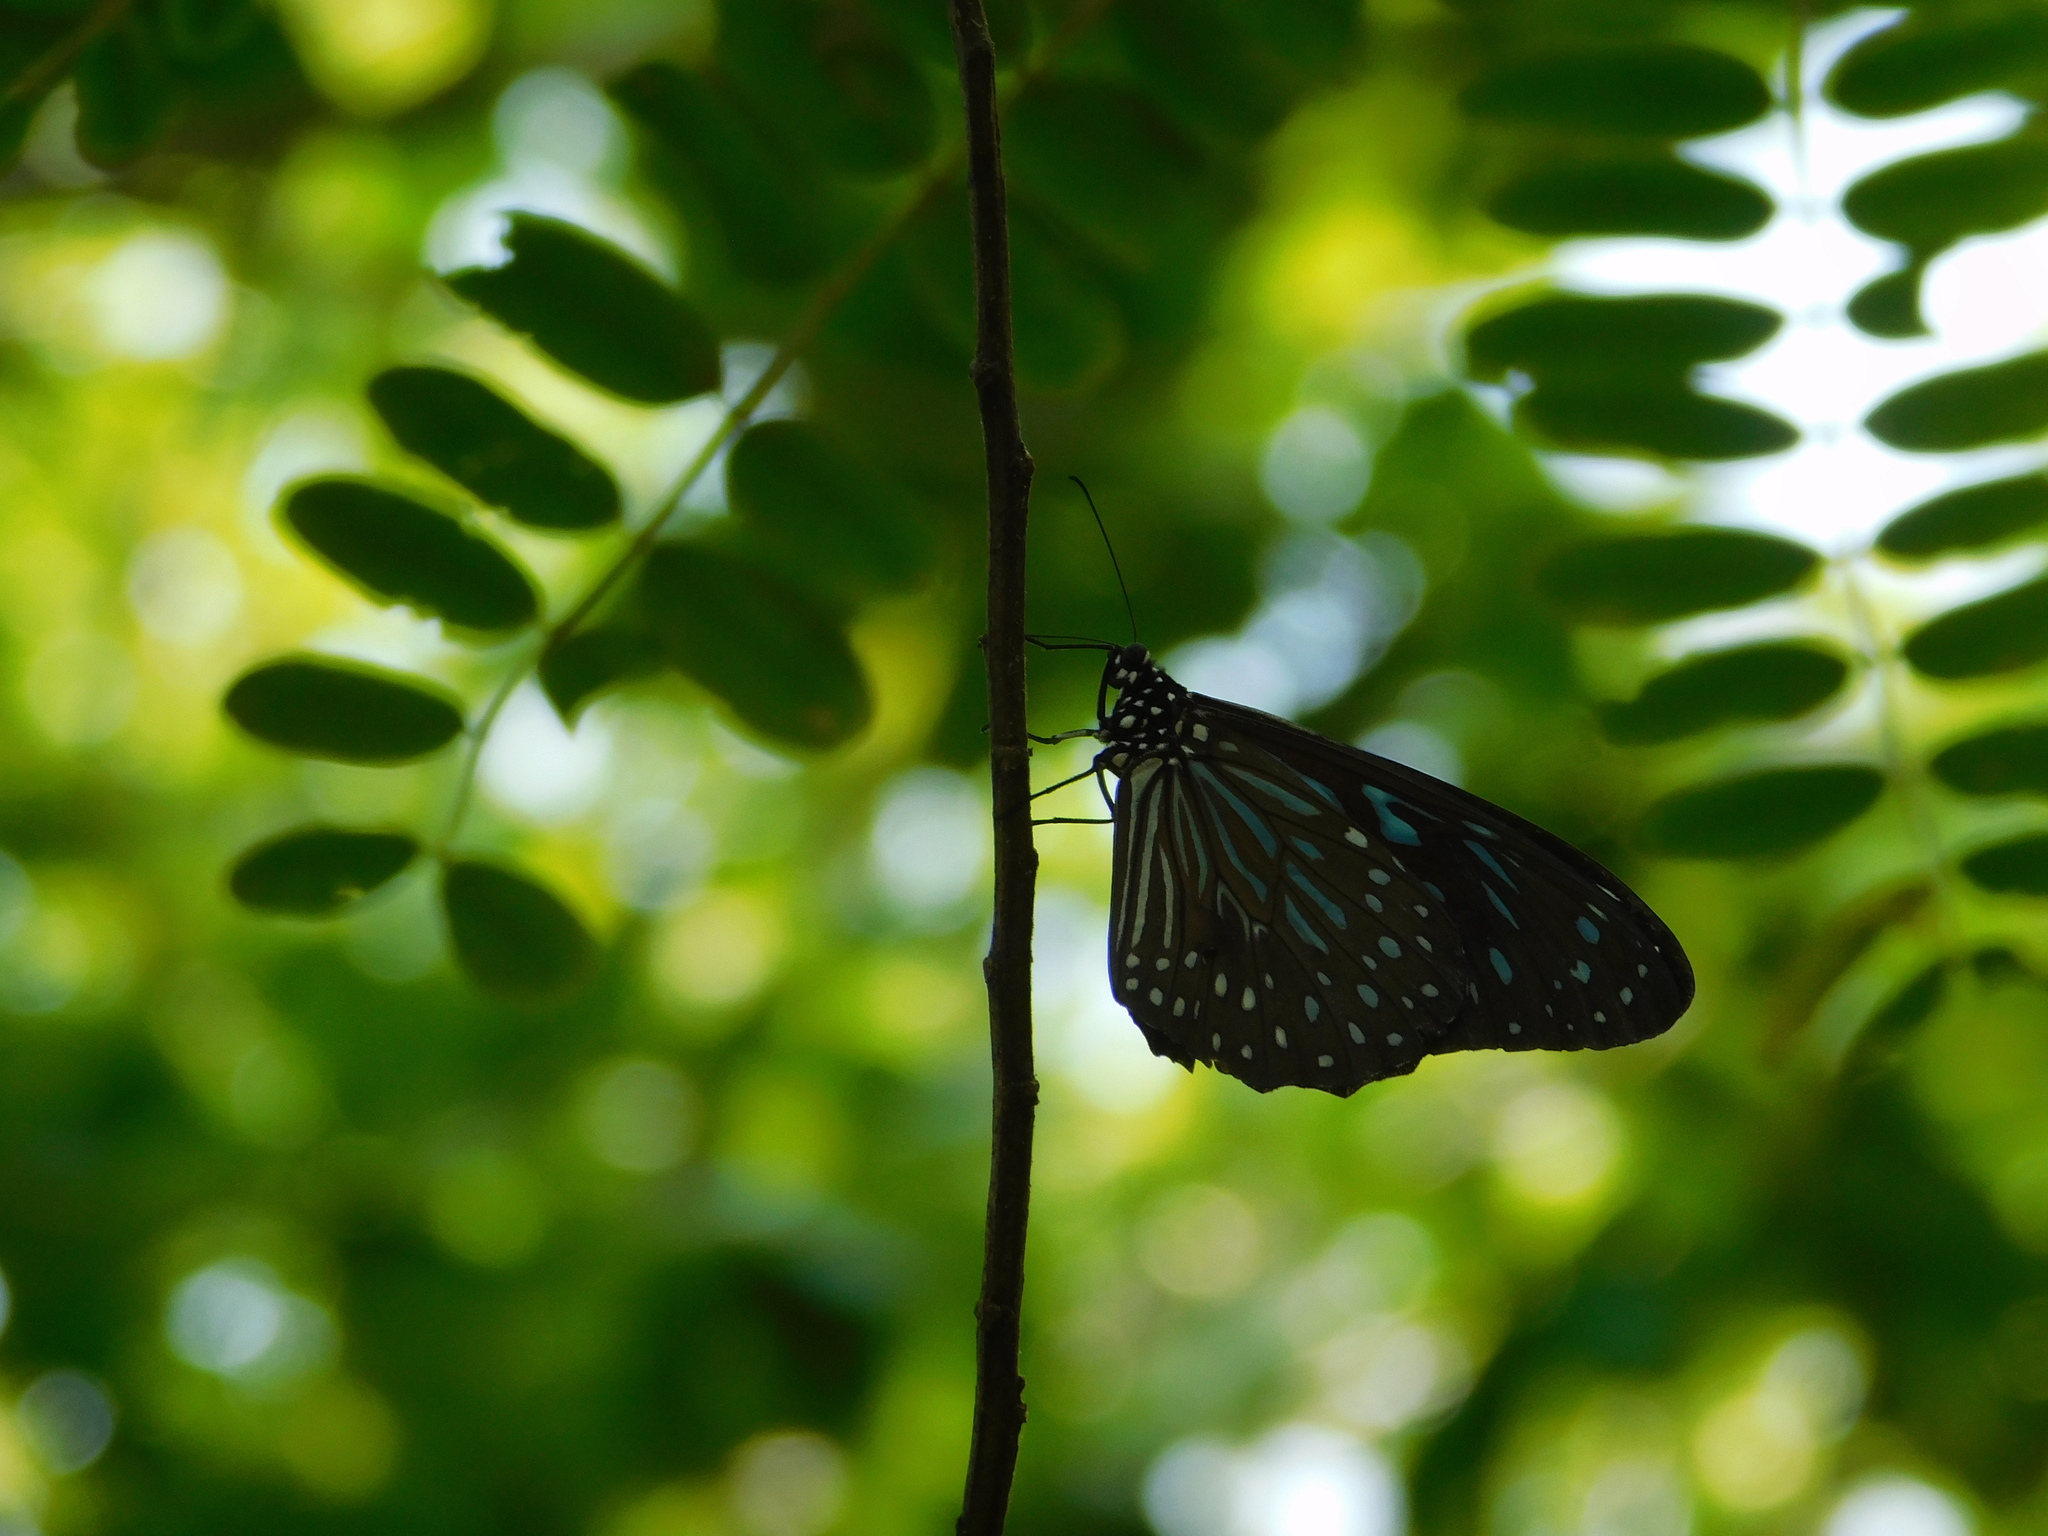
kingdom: Animalia
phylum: Arthropoda
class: Insecta
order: Lepidoptera
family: Nymphalidae
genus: Tirumala
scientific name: Tirumala septentrionis
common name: Dark blue tiger butterfly
